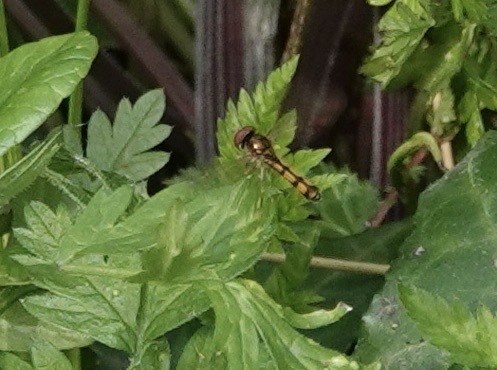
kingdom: Animalia
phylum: Arthropoda
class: Insecta
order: Diptera
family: Syrphidae
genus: Melanostoma
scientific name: Melanostoma scalare
